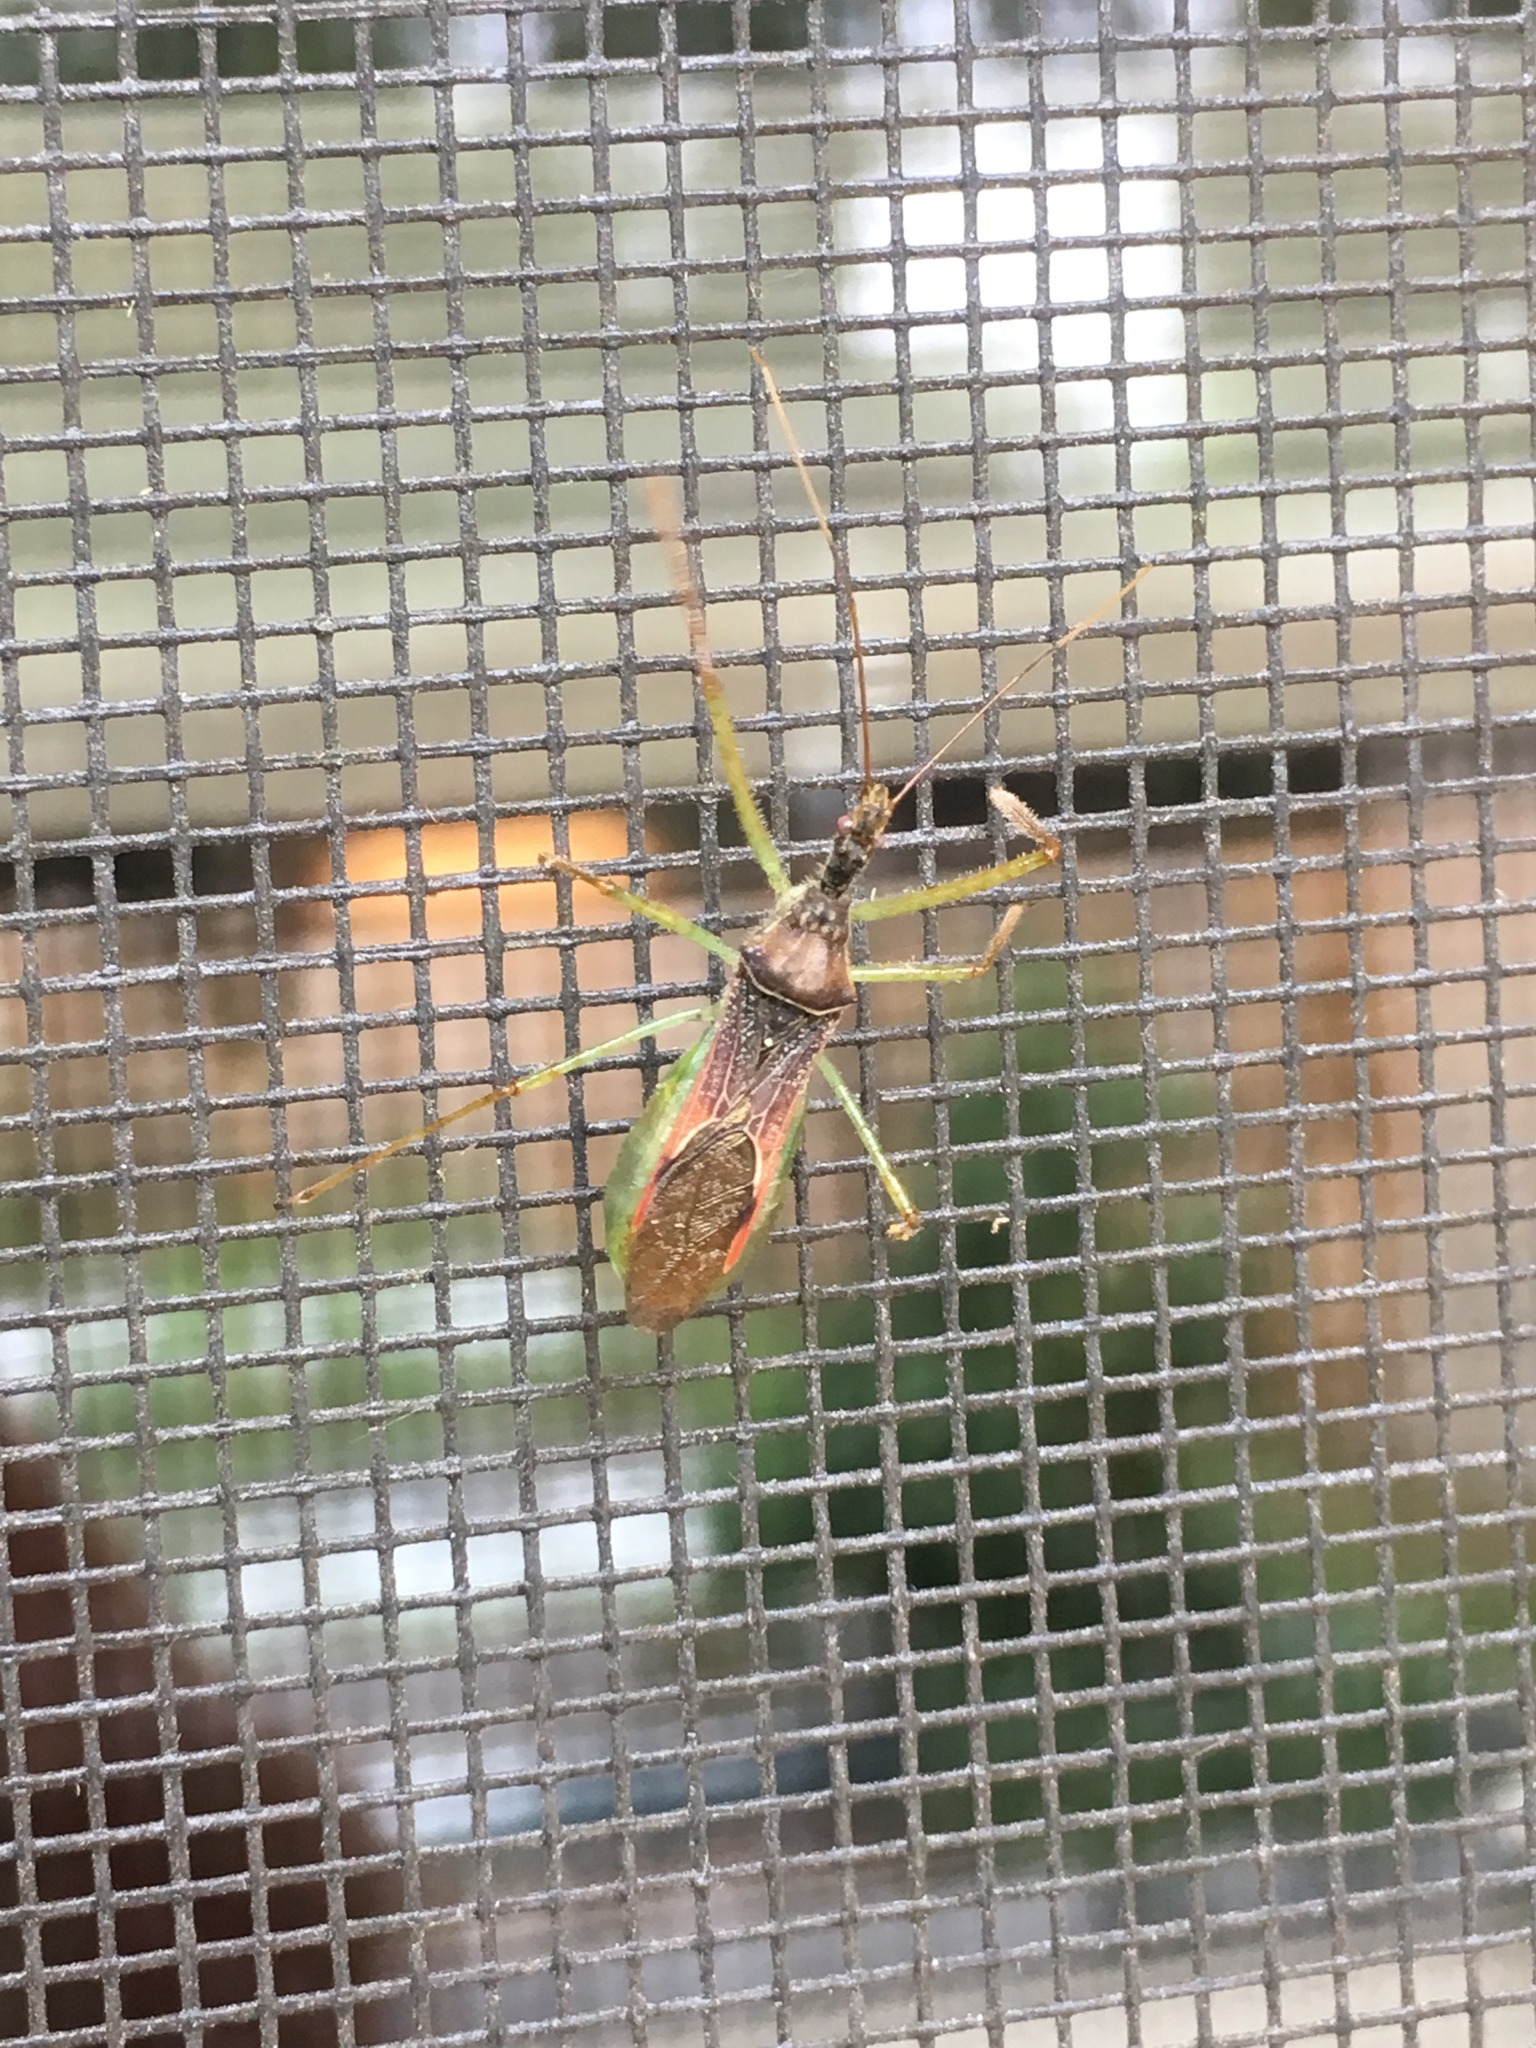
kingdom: Animalia
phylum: Arthropoda
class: Insecta
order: Hemiptera
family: Reduviidae
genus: Zelus
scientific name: Zelus renardii
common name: Assassin bug
